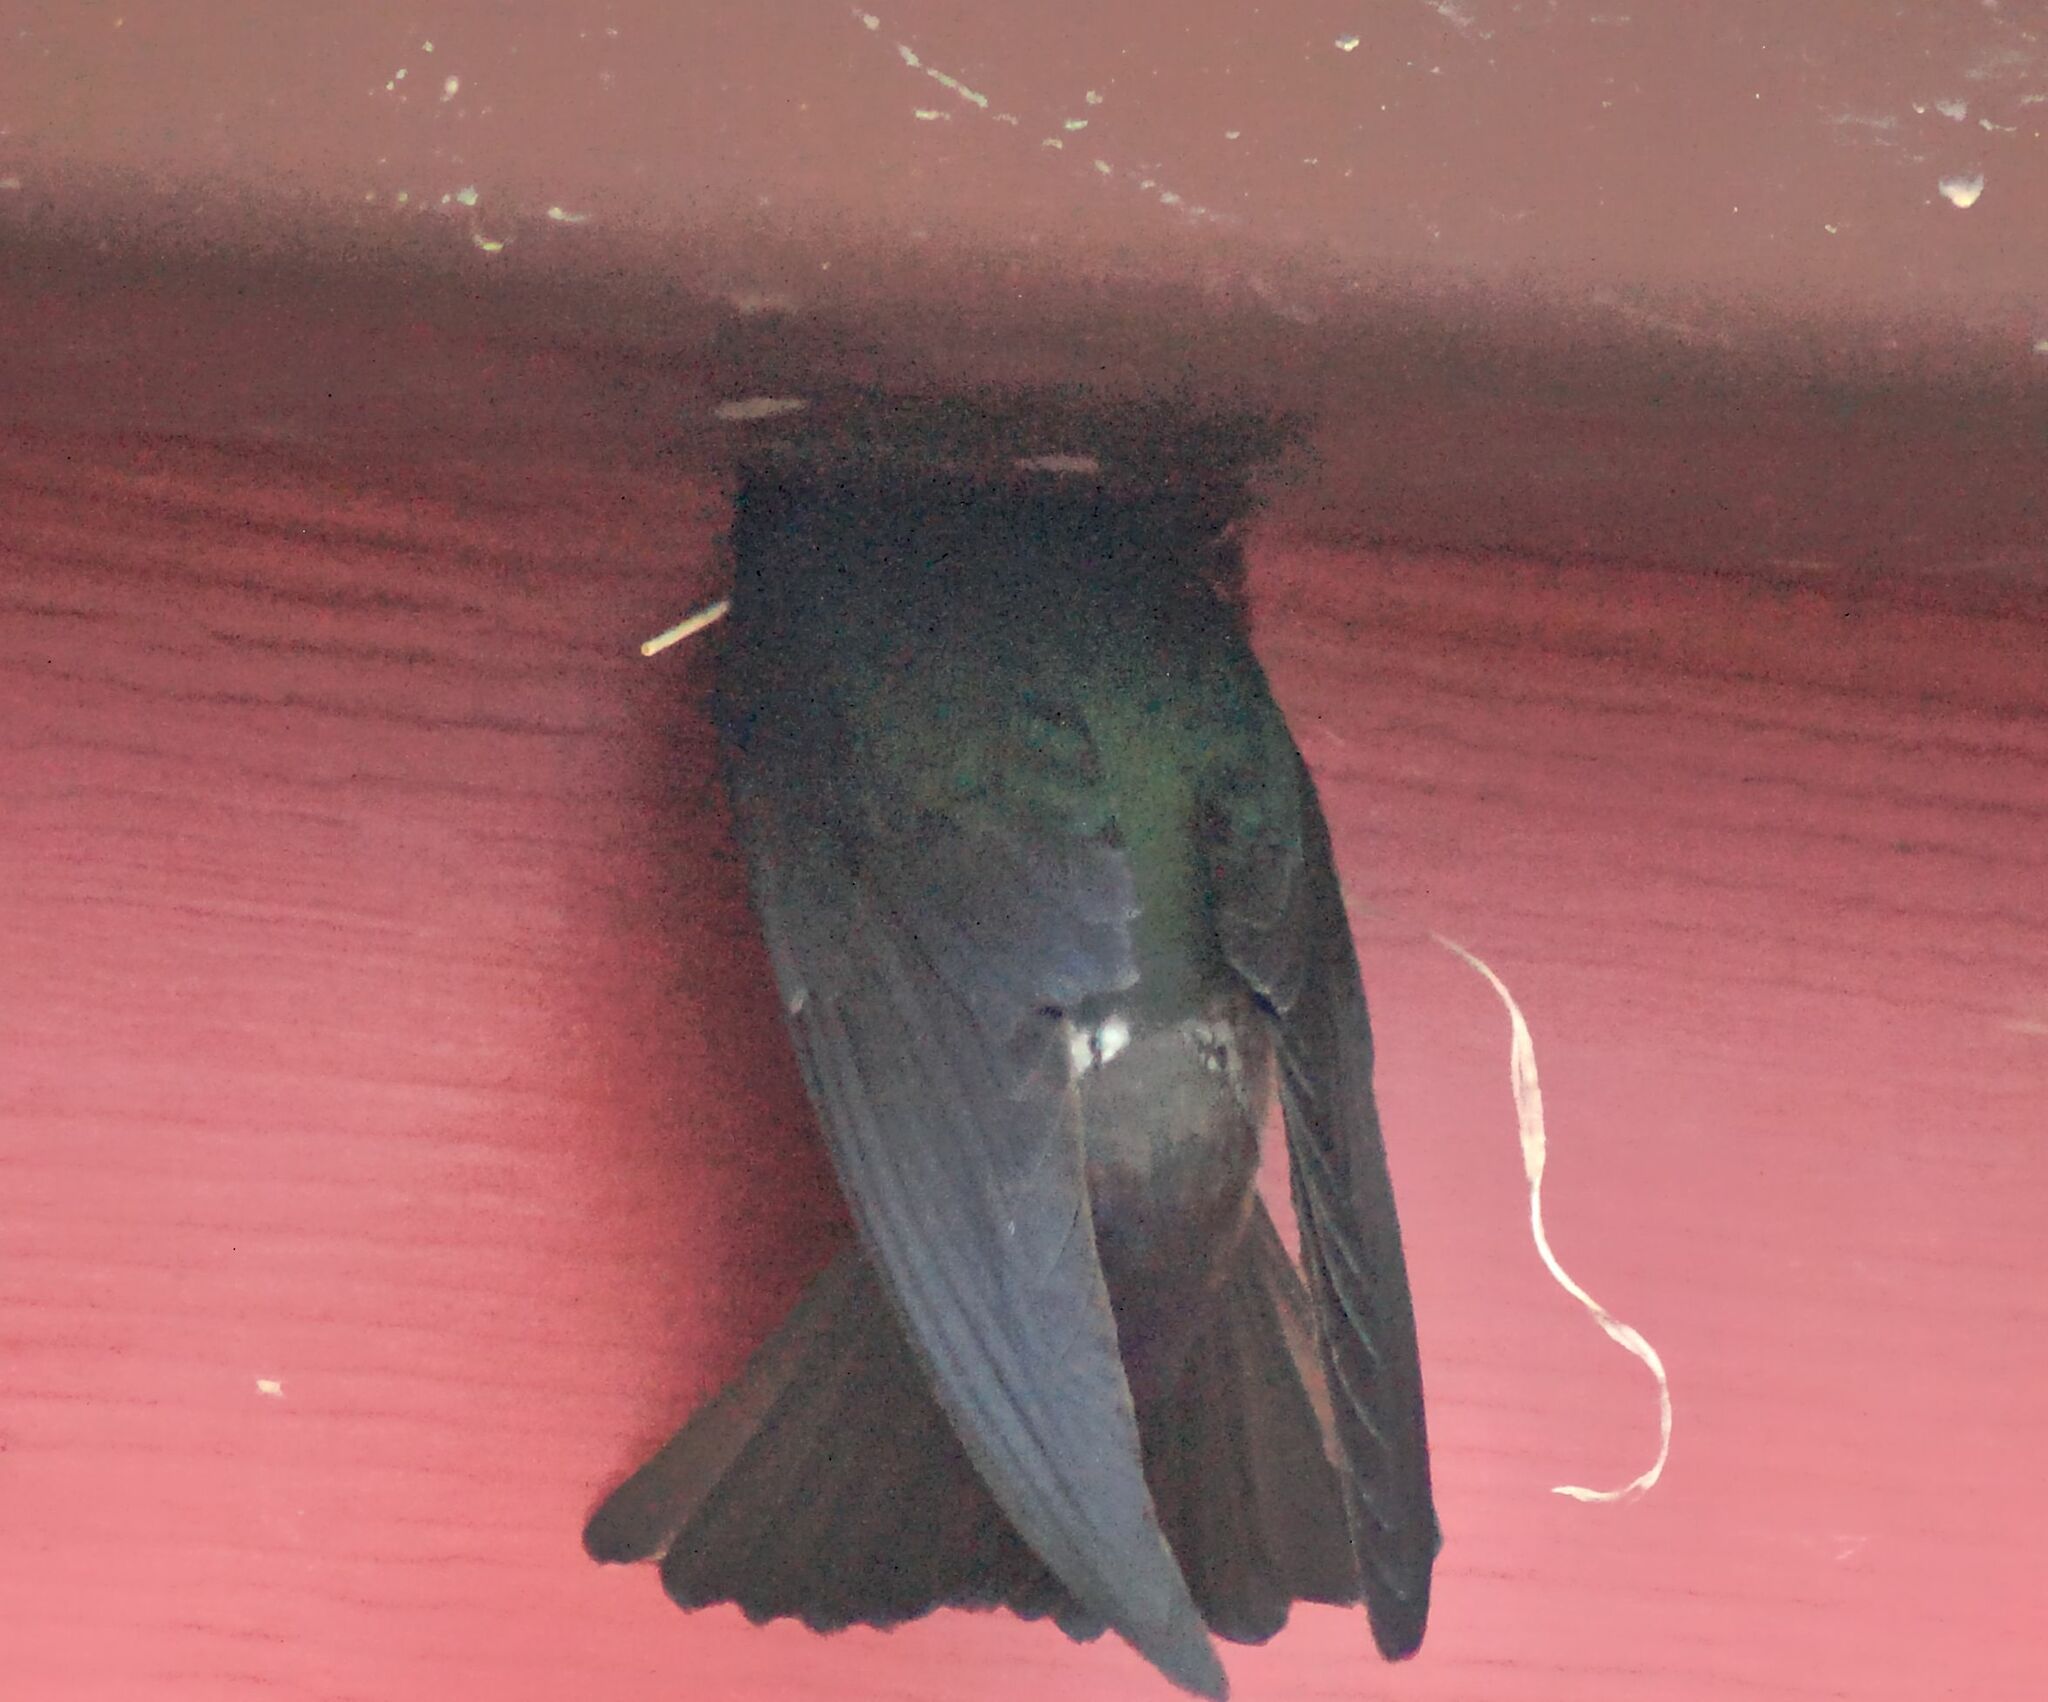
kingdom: Animalia
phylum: Chordata
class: Aves
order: Passeriformes
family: Hirundinidae
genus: Tachycineta
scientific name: Tachycineta thalassina
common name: Violet-green swallow
